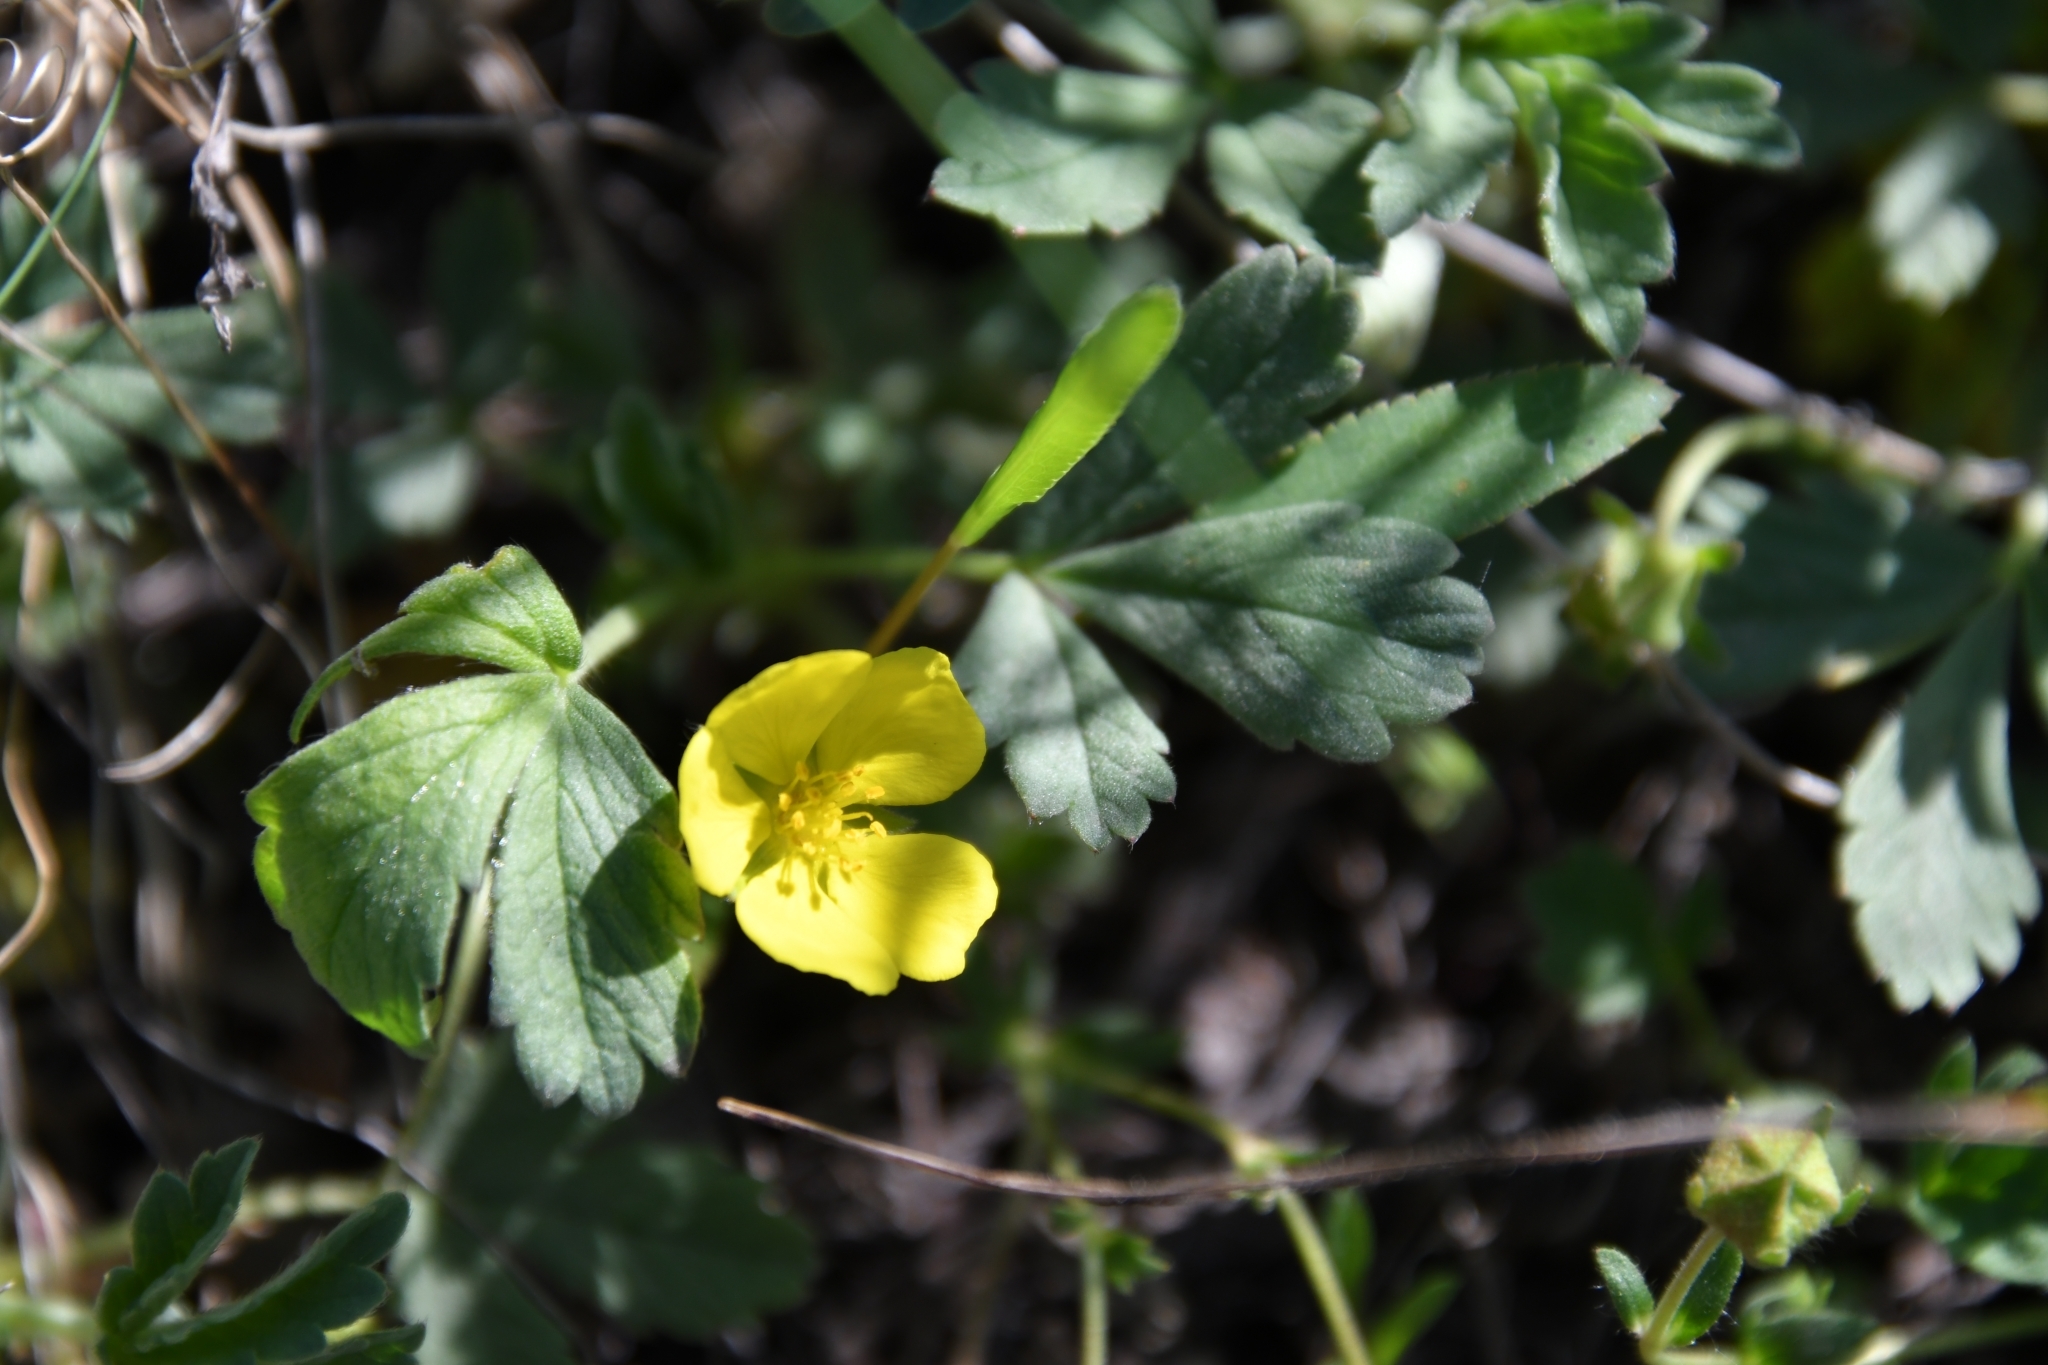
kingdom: Plantae
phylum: Tracheophyta
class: Magnoliopsida
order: Rosales
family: Rosaceae
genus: Potentilla
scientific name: Potentilla incana
